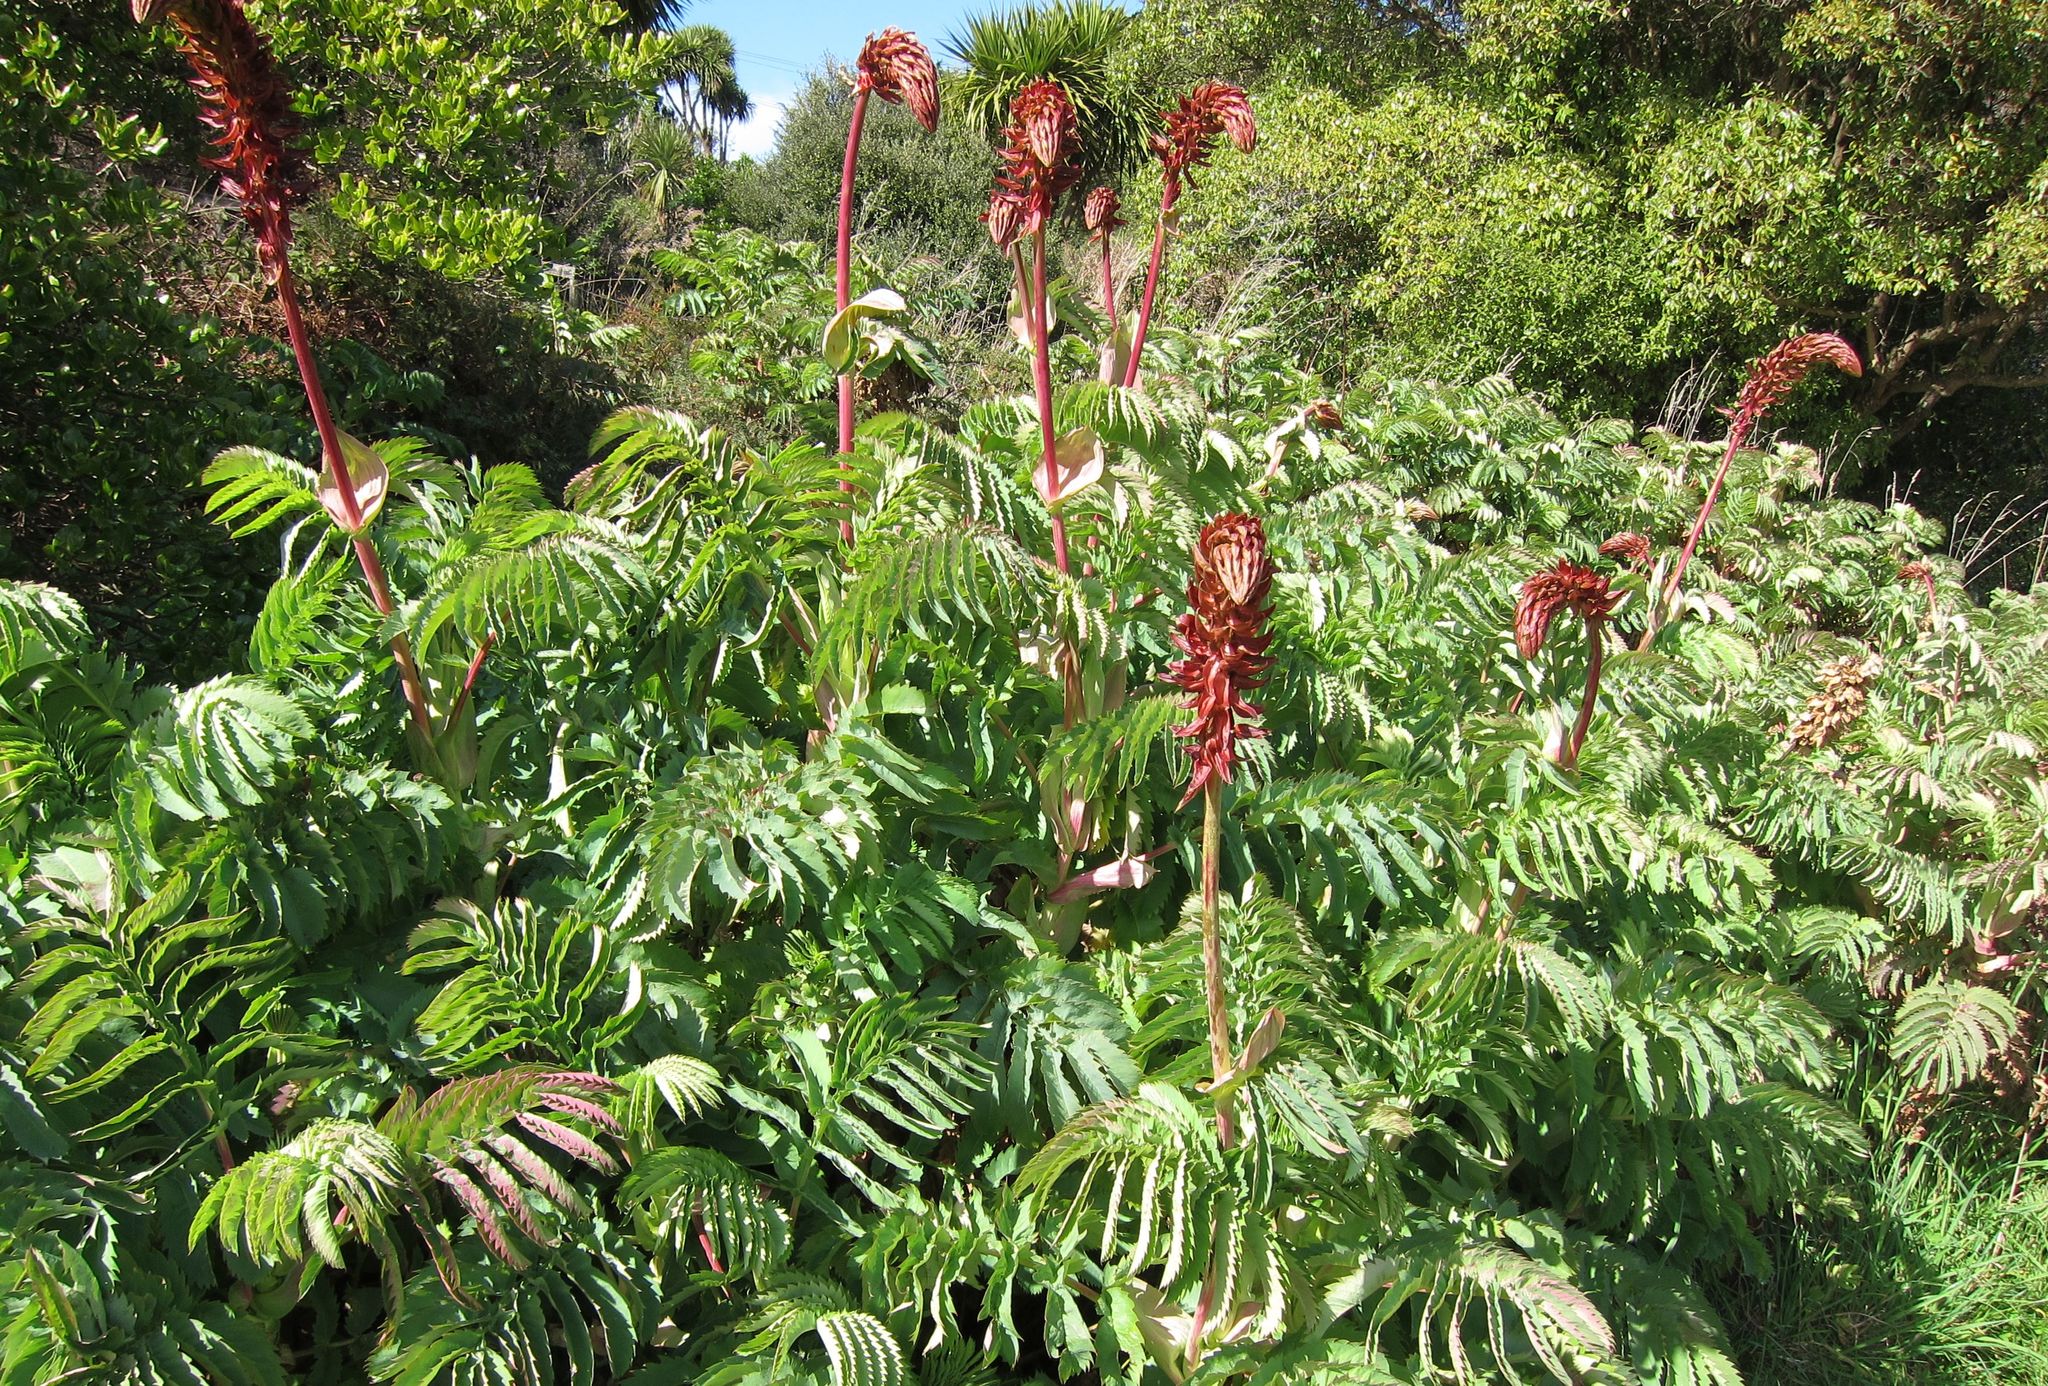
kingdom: Plantae
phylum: Tracheophyta
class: Magnoliopsida
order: Geraniales
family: Melianthaceae
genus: Melianthus
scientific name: Melianthus major
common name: Honey-flower
